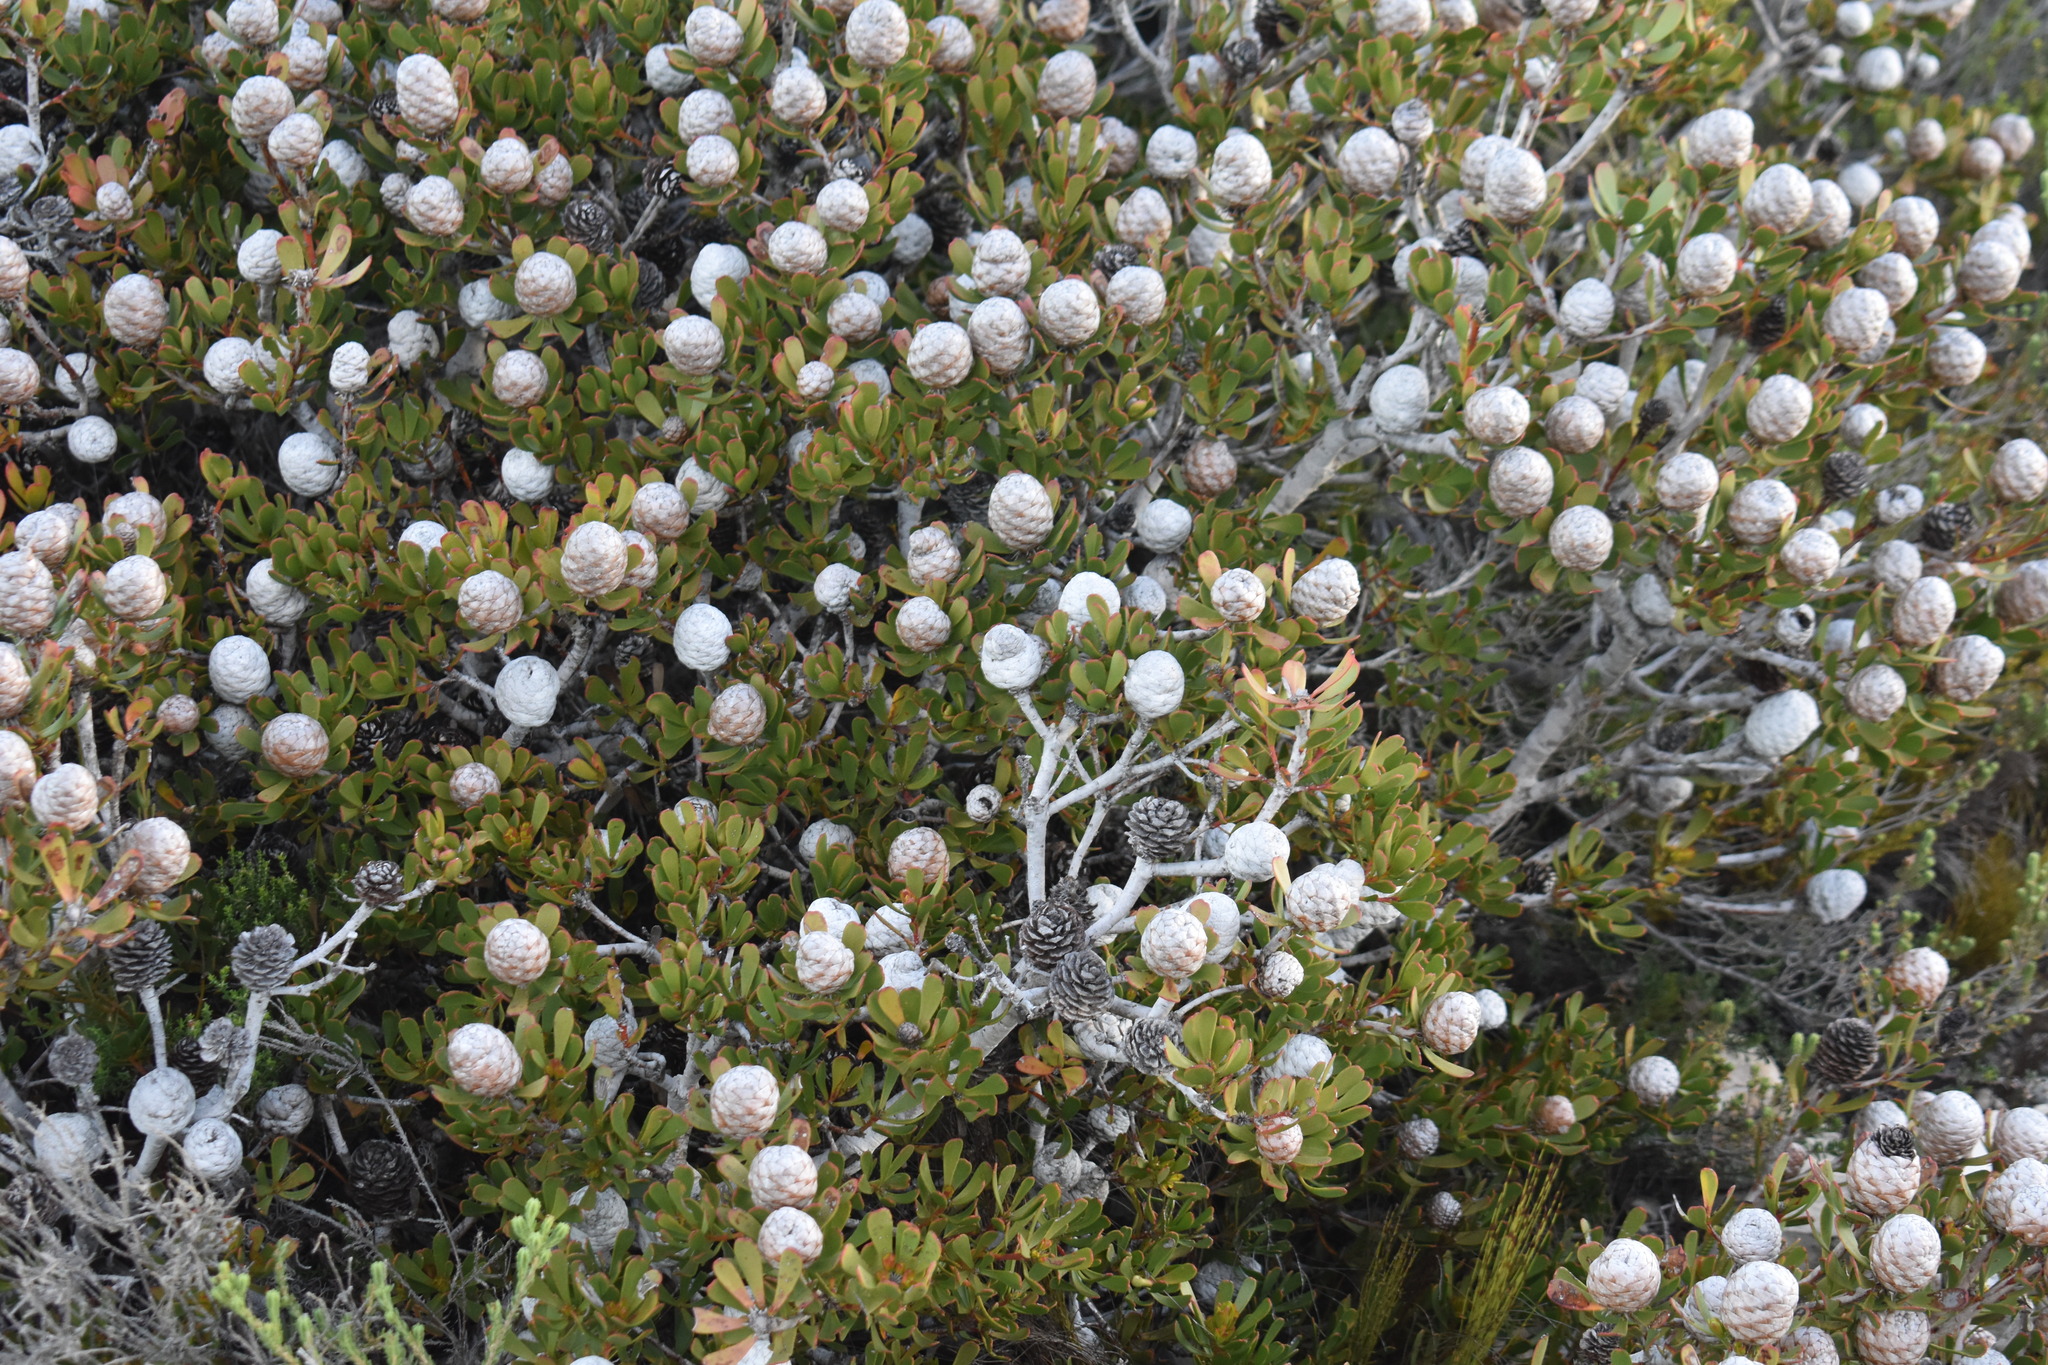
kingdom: Plantae
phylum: Tracheophyta
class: Magnoliopsida
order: Proteales
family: Proteaceae
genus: Leucadendron
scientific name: Leucadendron muirii
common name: Silver-ball conebush
